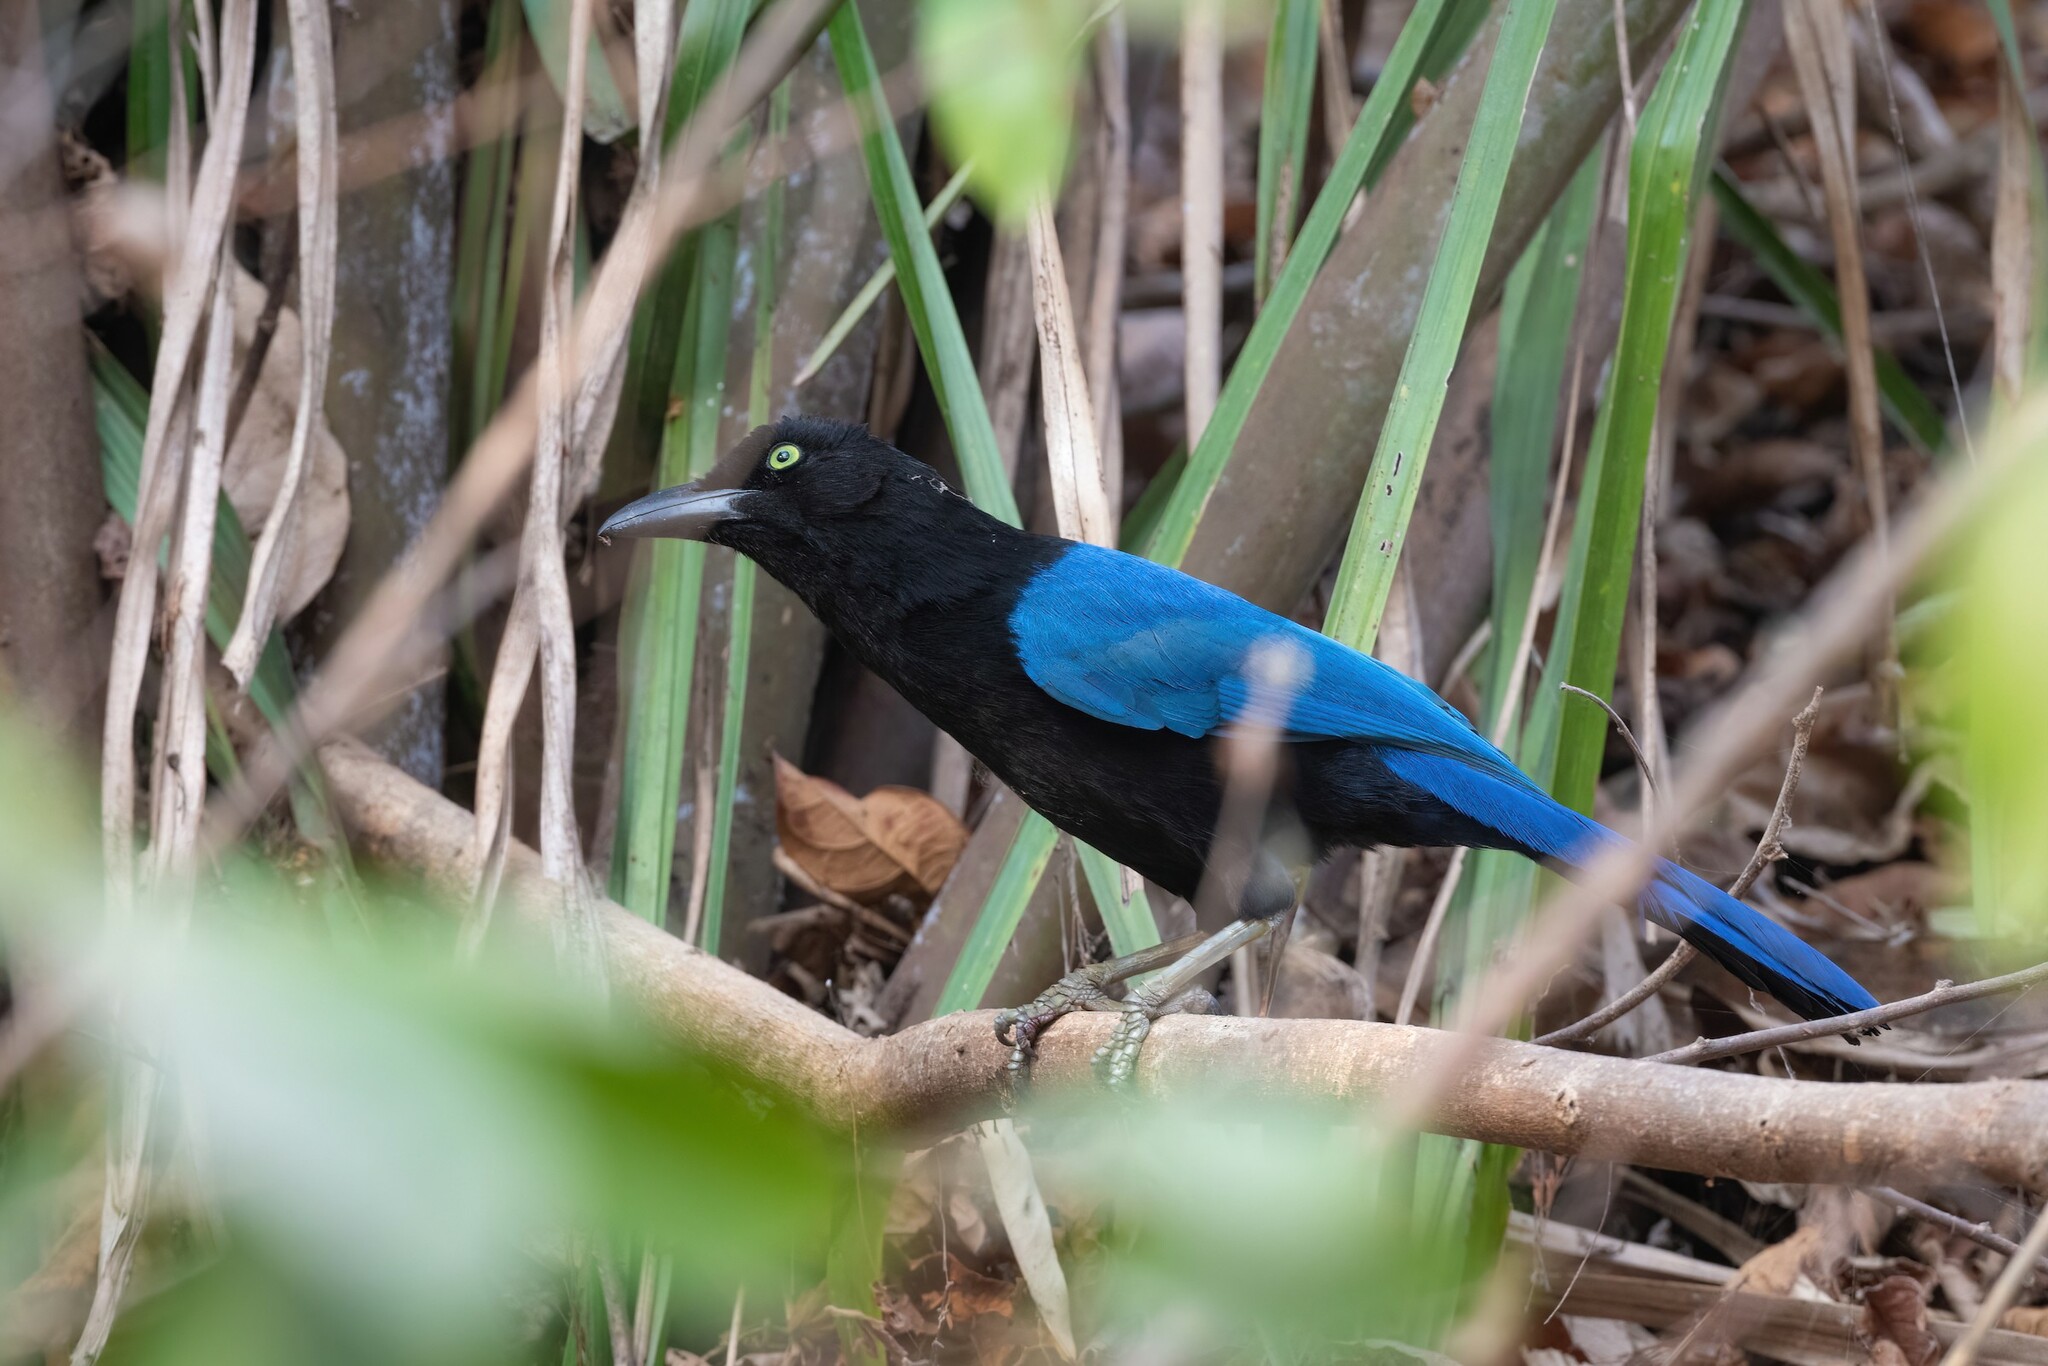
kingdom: Animalia
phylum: Chordata
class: Aves
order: Passeriformes
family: Corvidae
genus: Cyanocorax
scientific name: Cyanocorax sanblasianus
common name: San blas jay
